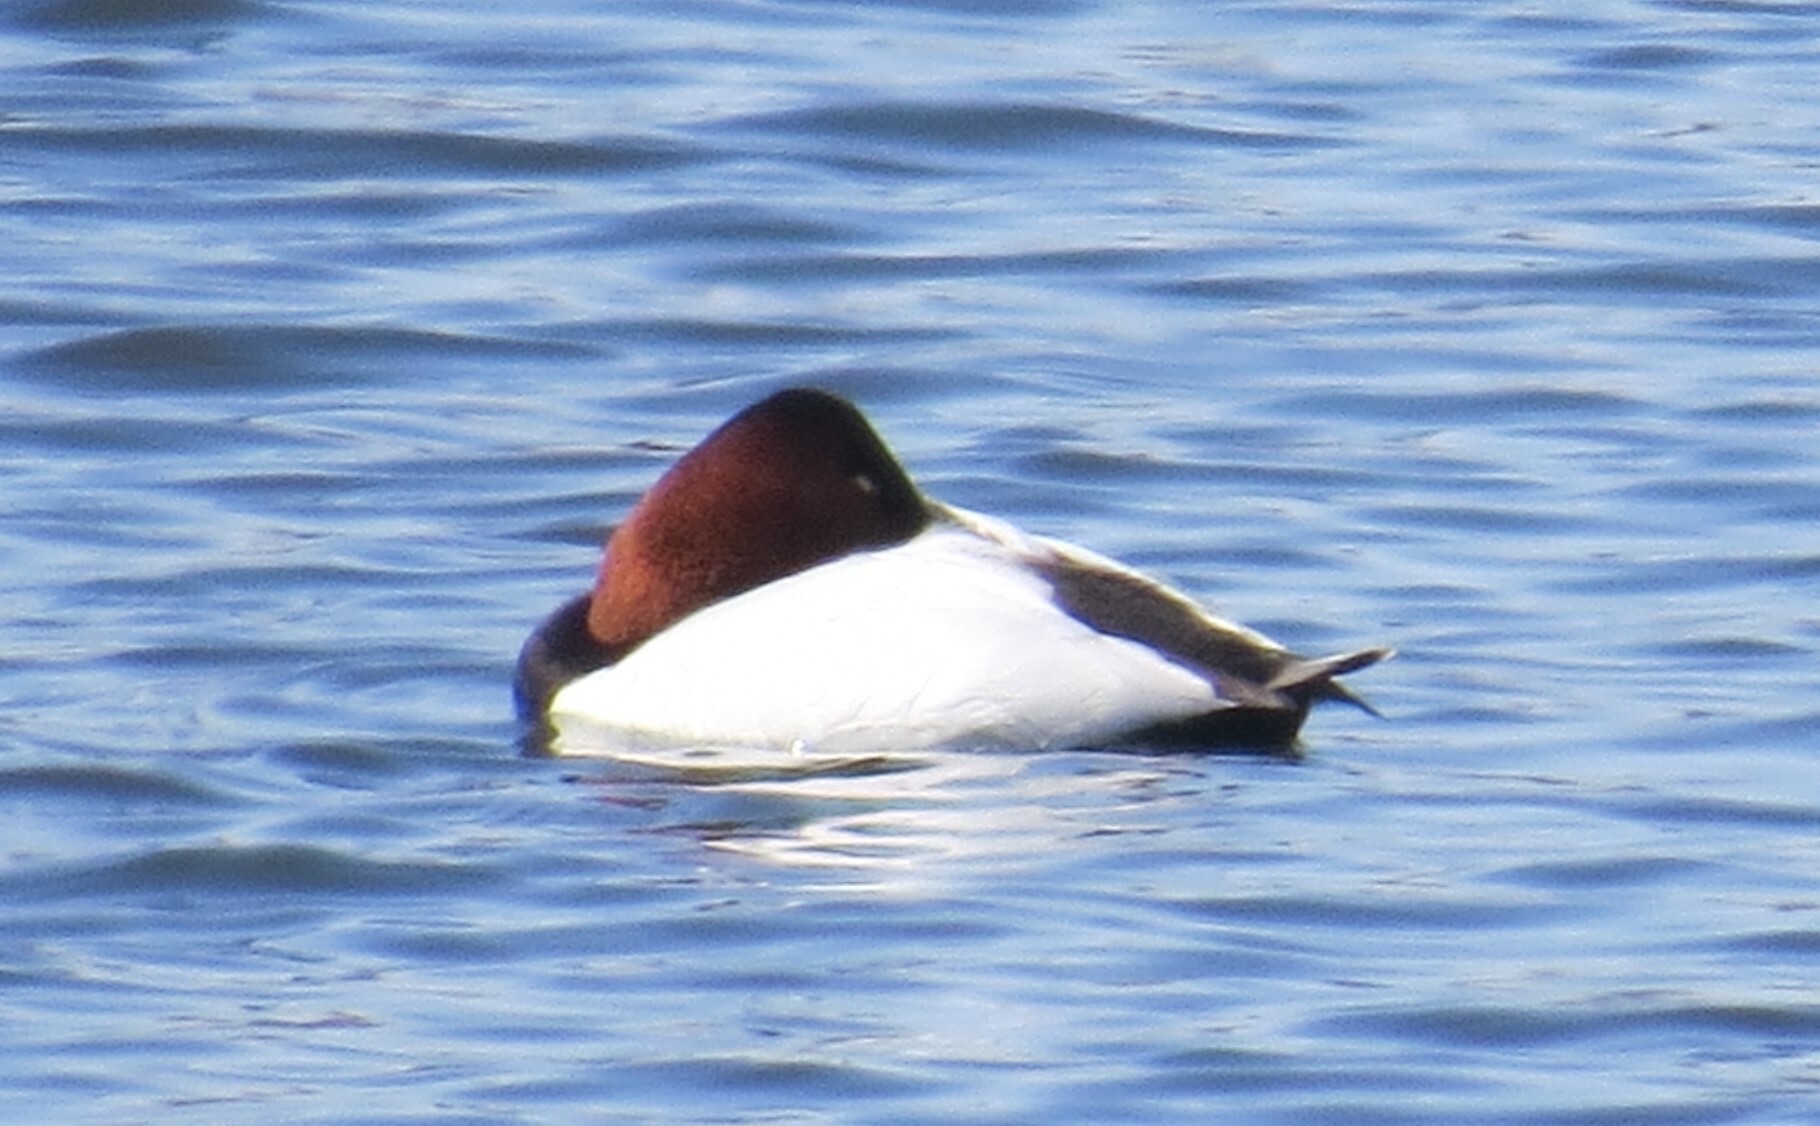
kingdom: Animalia
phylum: Chordata
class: Aves
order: Anseriformes
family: Anatidae
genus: Aythya
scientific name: Aythya valisineria
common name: Canvasback
